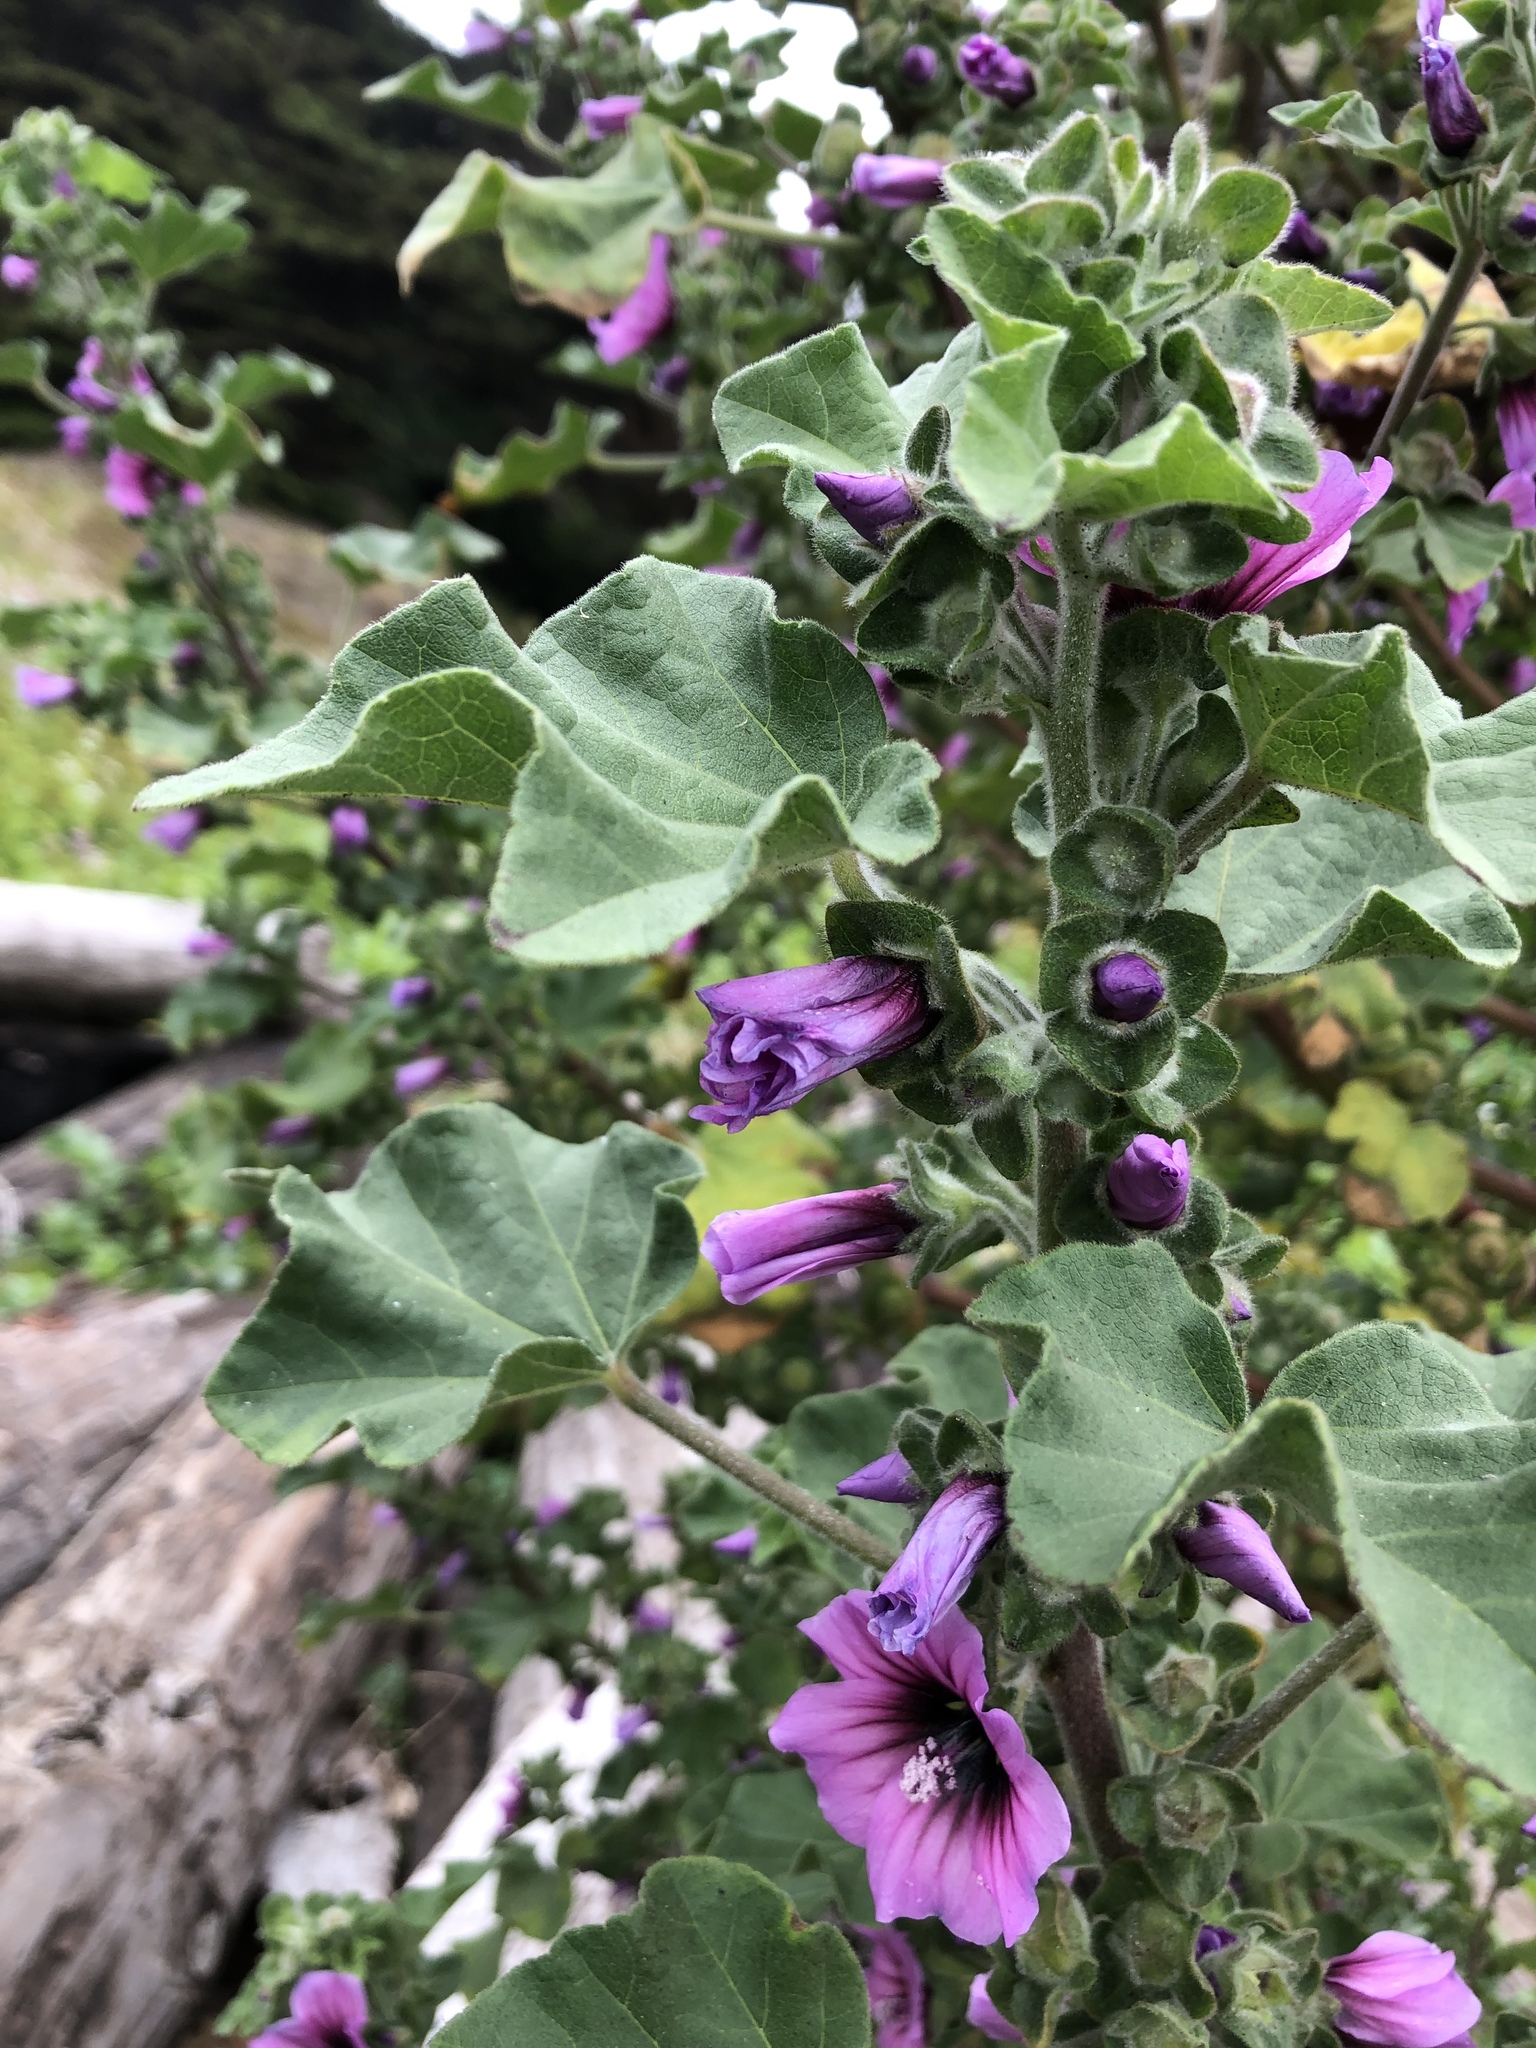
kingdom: Plantae
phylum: Tracheophyta
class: Magnoliopsida
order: Malvales
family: Malvaceae
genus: Malva
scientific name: Malva arborea
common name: Tree mallow
